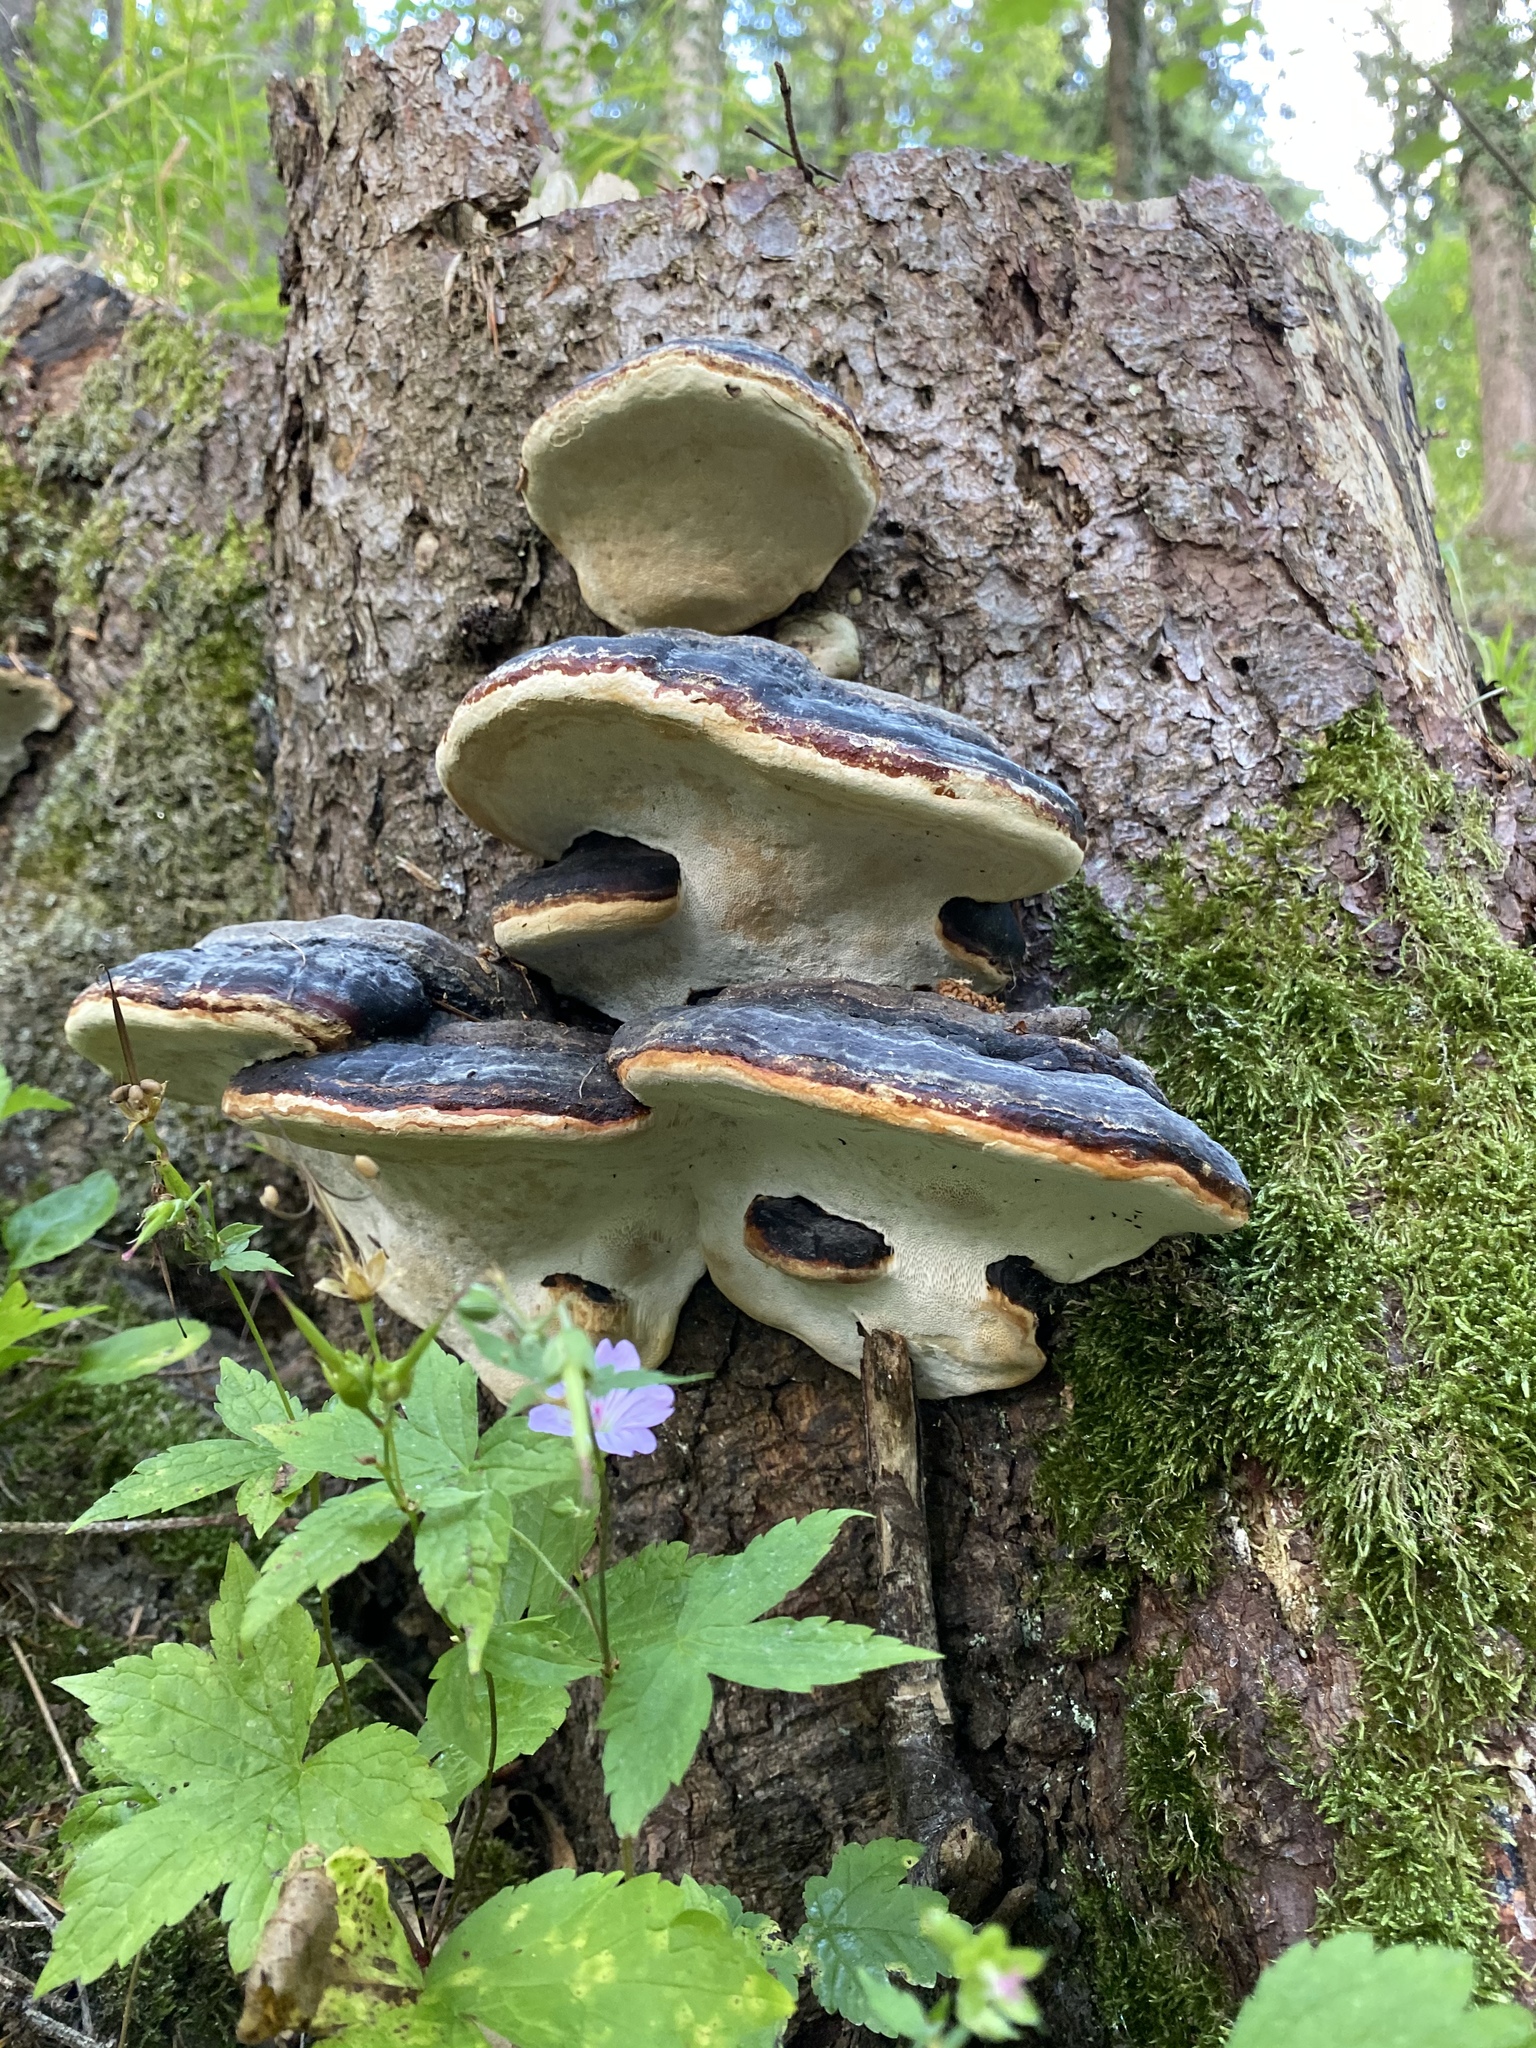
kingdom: Fungi
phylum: Basidiomycota
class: Agaricomycetes
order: Polyporales
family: Fomitopsidaceae
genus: Fomitopsis
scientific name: Fomitopsis pinicola
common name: Red-belted bracket
